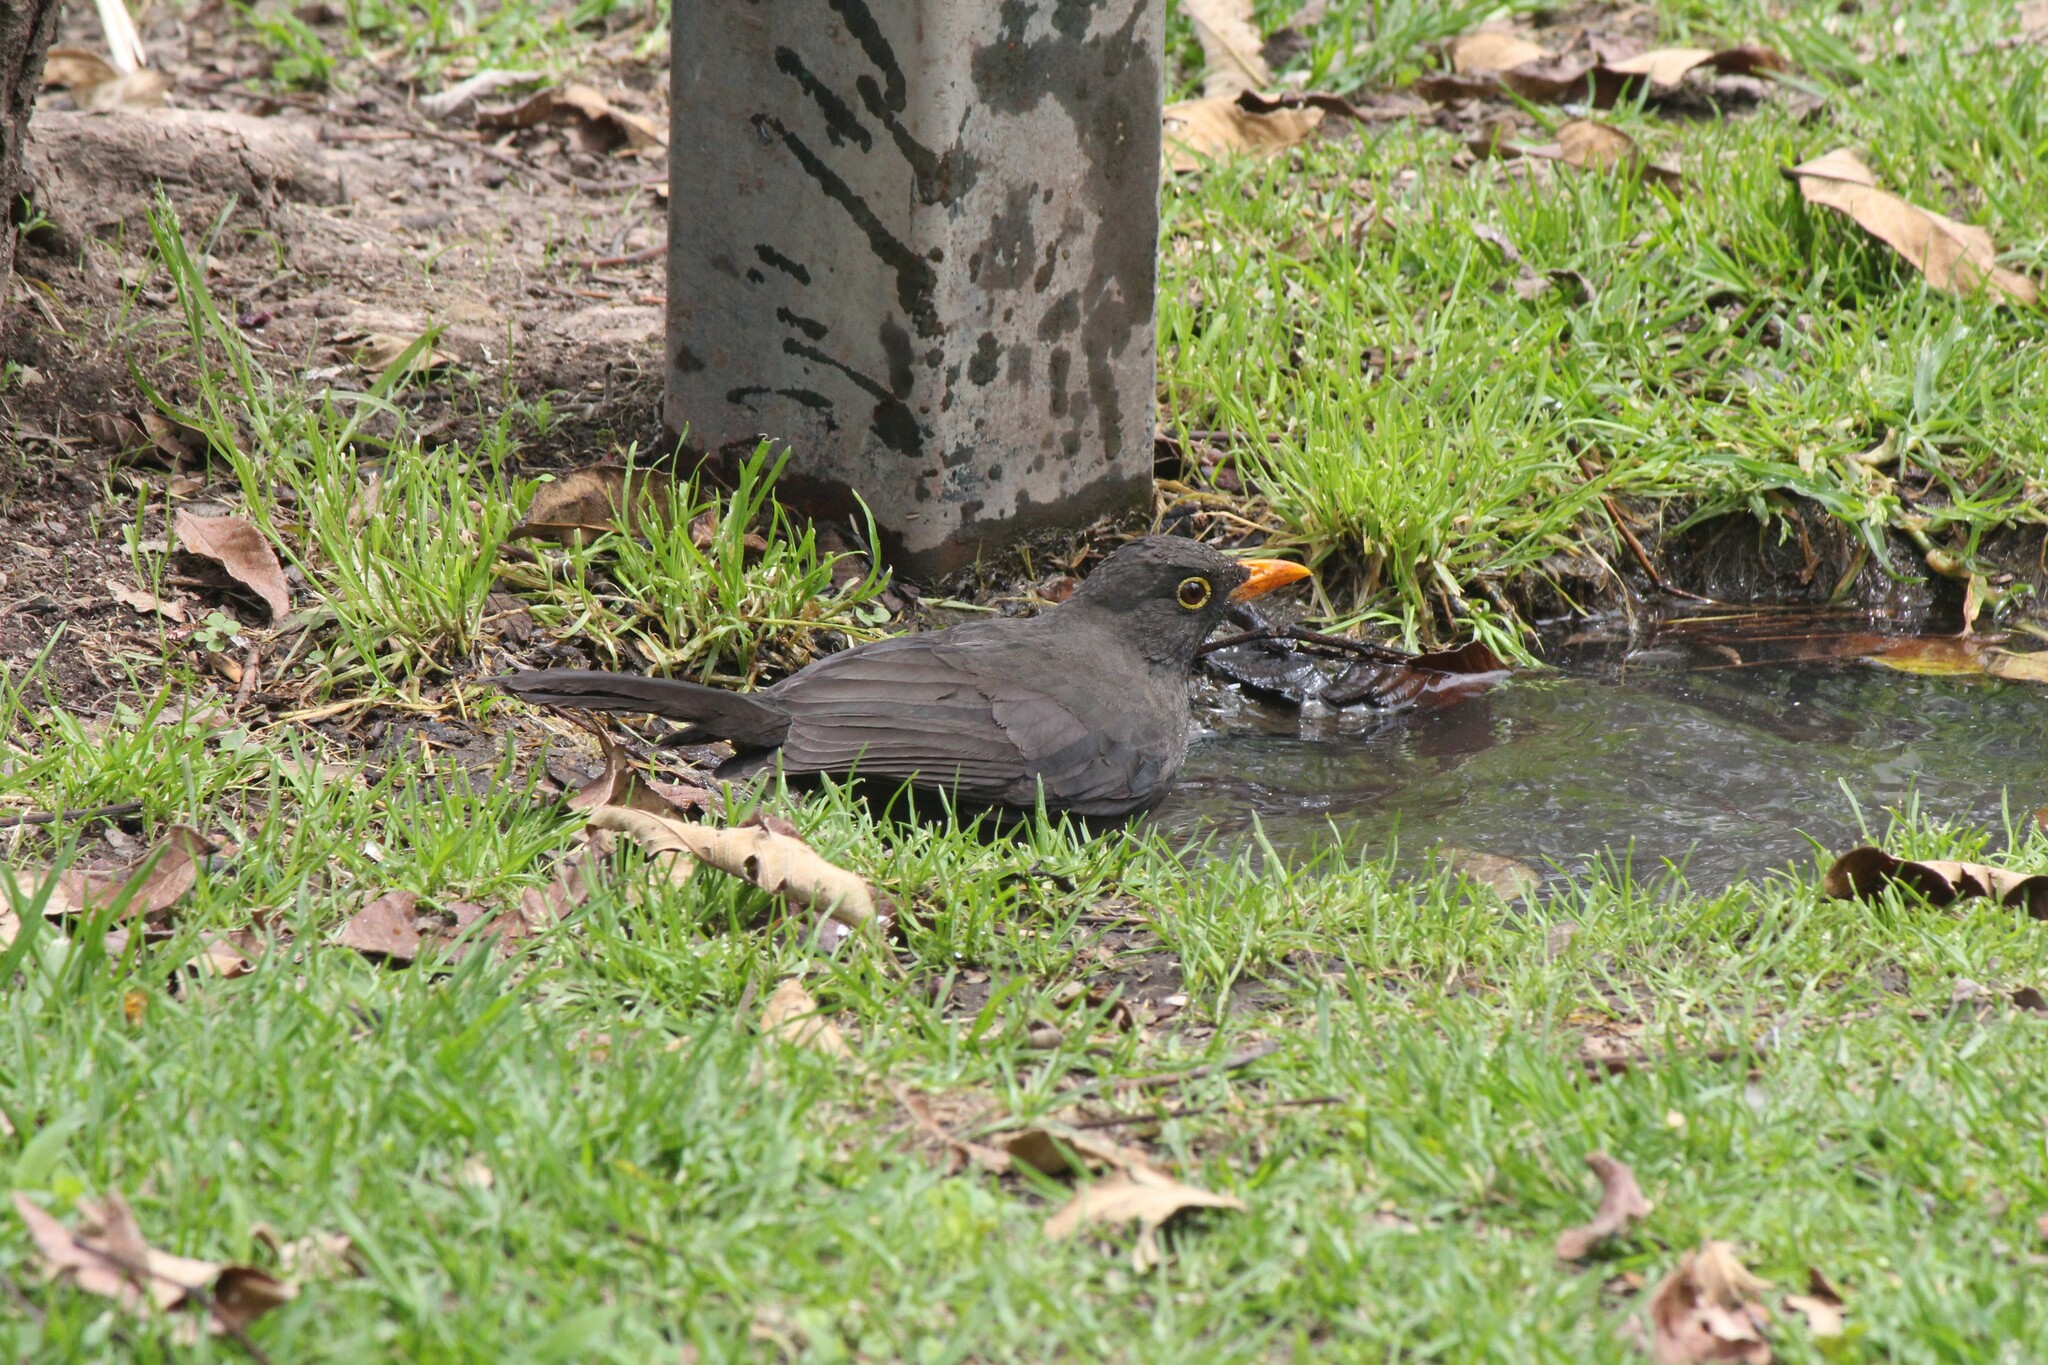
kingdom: Animalia
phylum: Chordata
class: Aves
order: Passeriformes
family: Turdidae
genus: Turdus
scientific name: Turdus fuscater
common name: Great thrush
